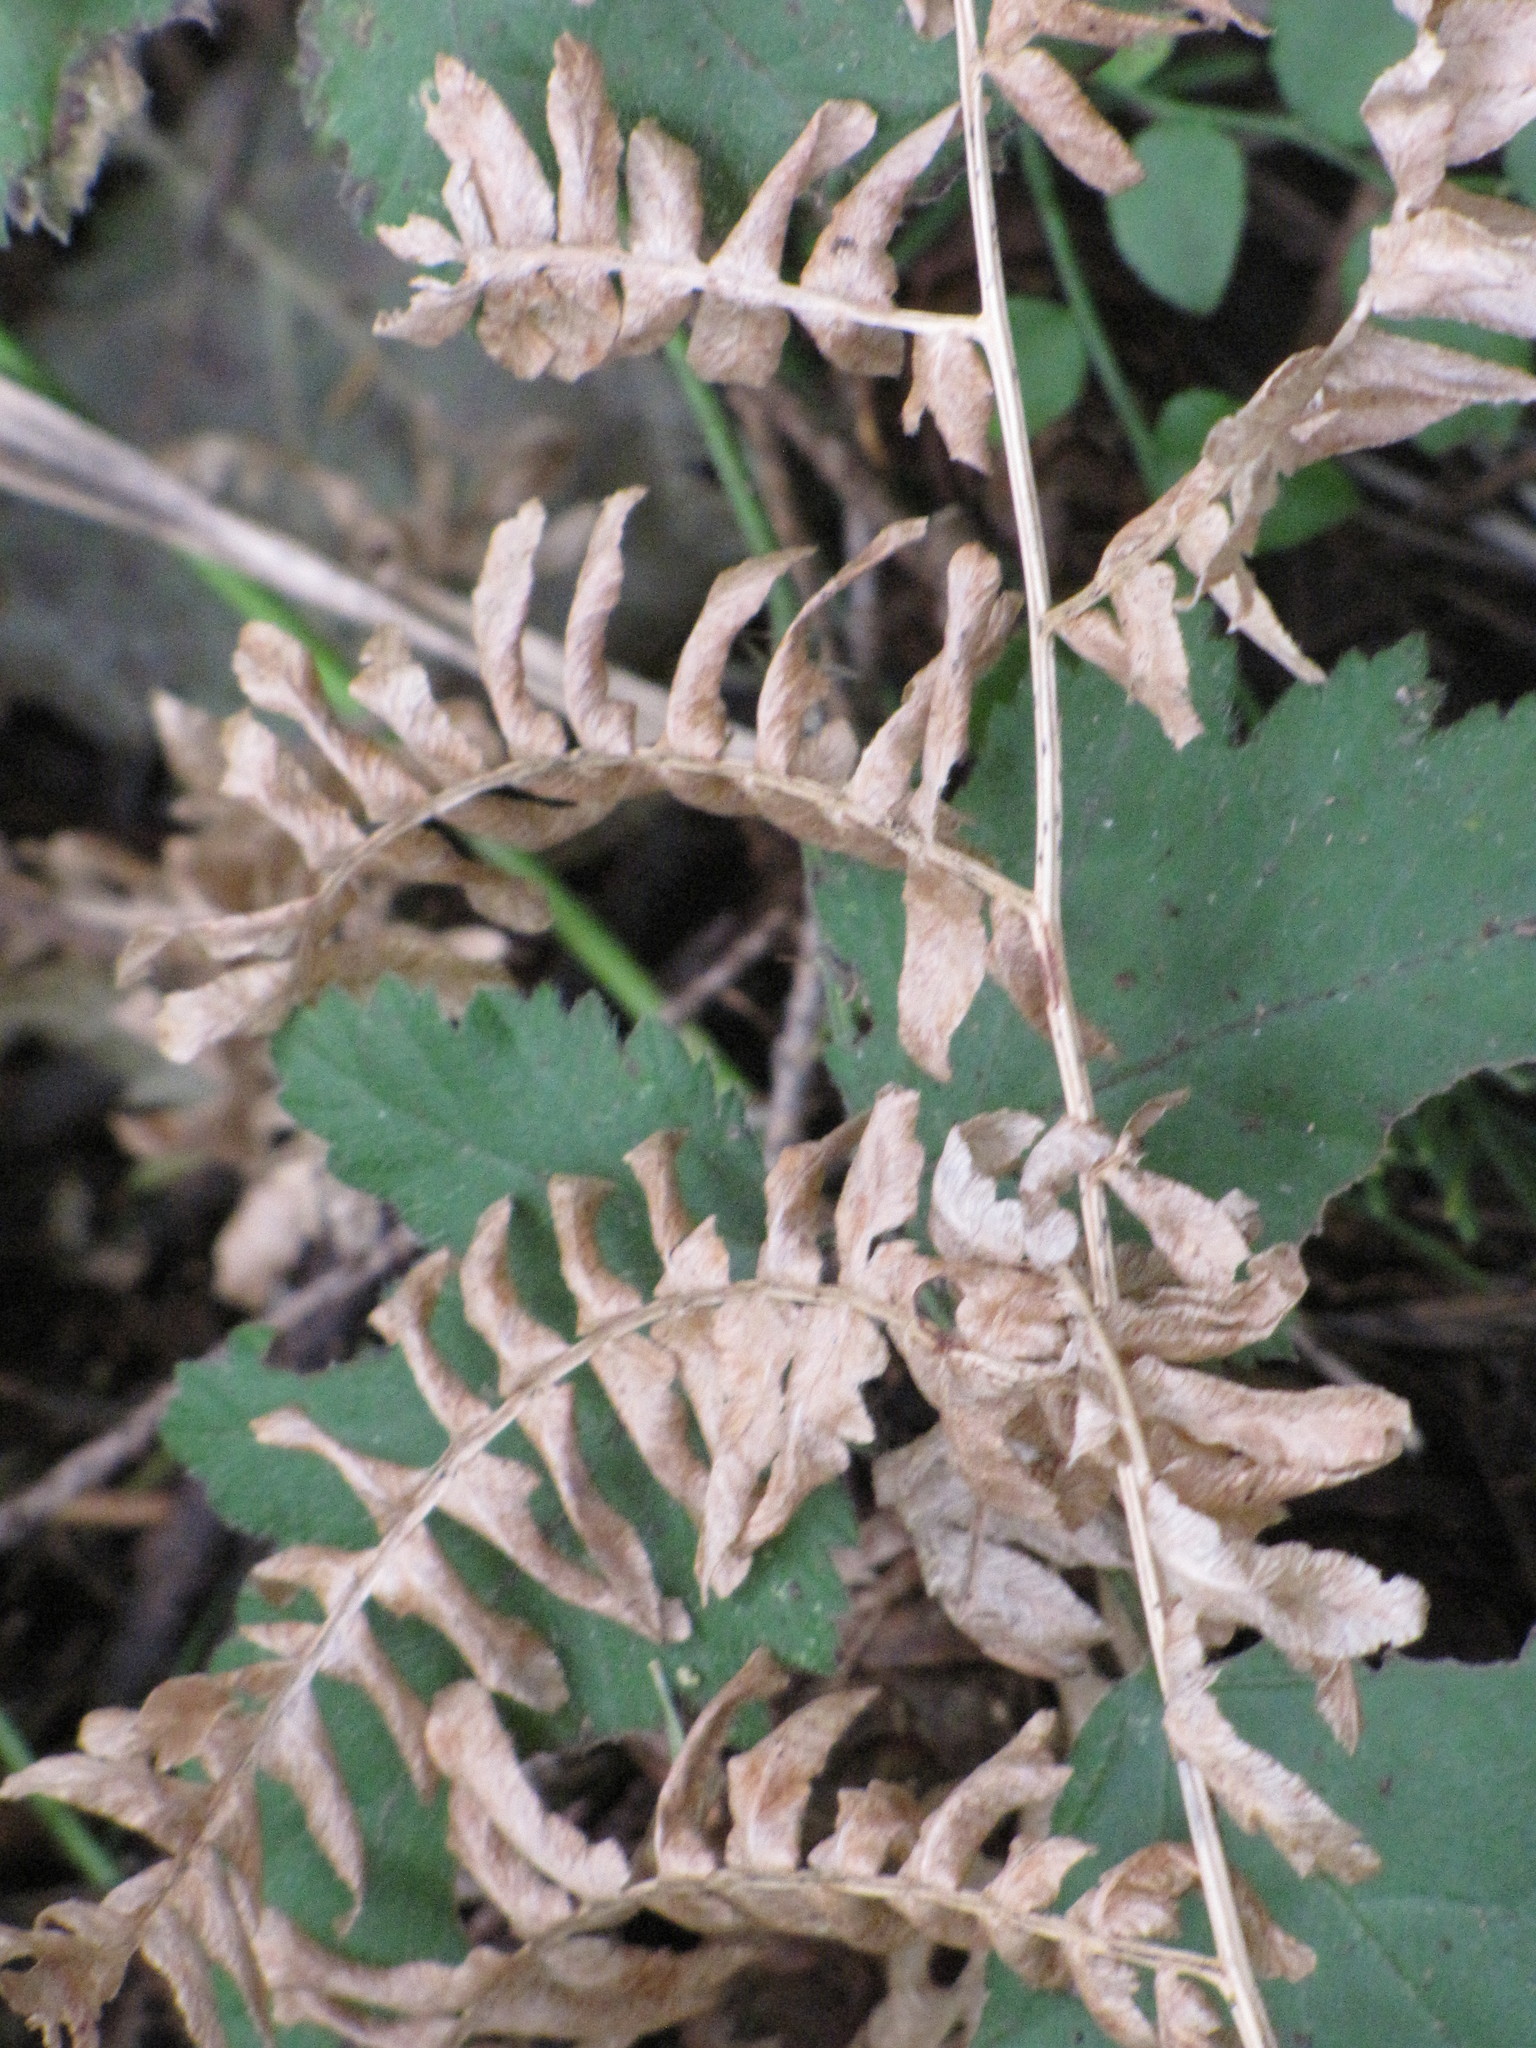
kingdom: Plantae
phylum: Tracheophyta
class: Polypodiopsida
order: Polypodiales
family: Dennstaedtiaceae
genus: Pteridium
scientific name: Pteridium aquilinum
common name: Bracken
